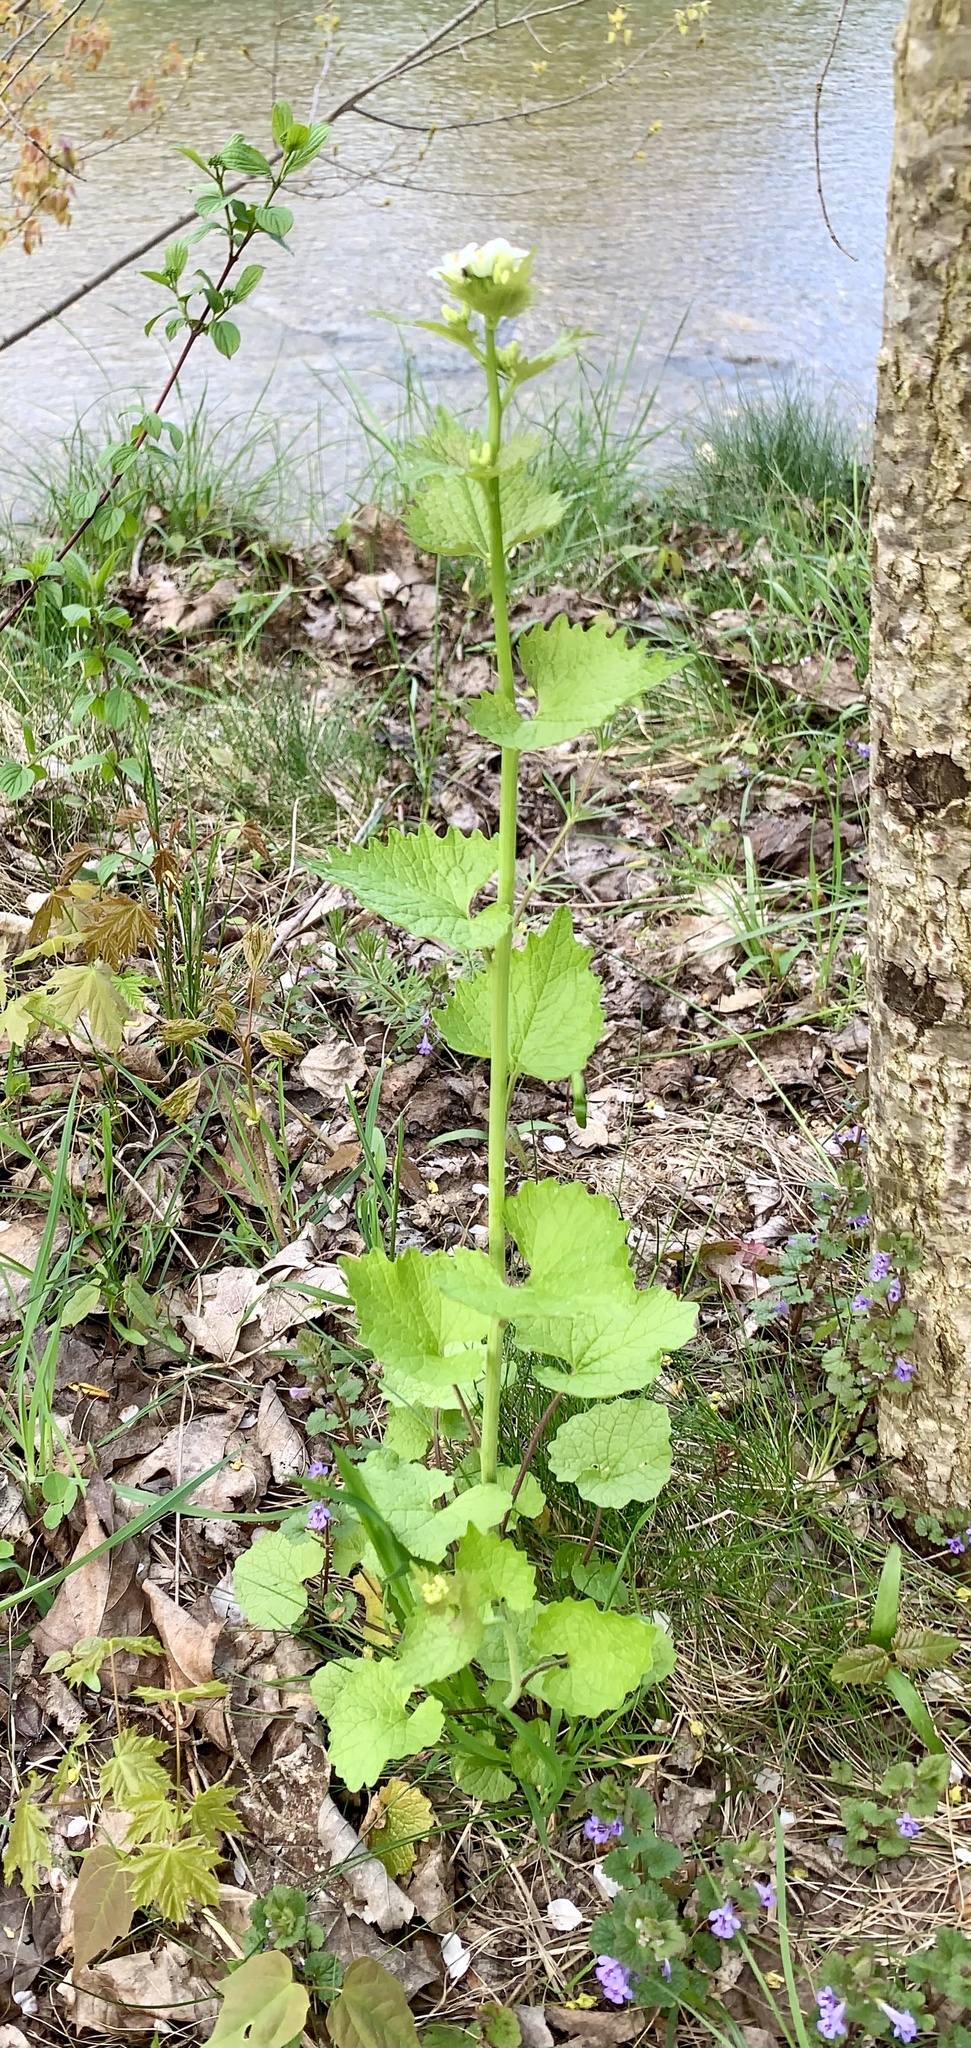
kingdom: Plantae
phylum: Tracheophyta
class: Magnoliopsida
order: Brassicales
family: Brassicaceae
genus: Alliaria
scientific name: Alliaria petiolata
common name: Garlic mustard
